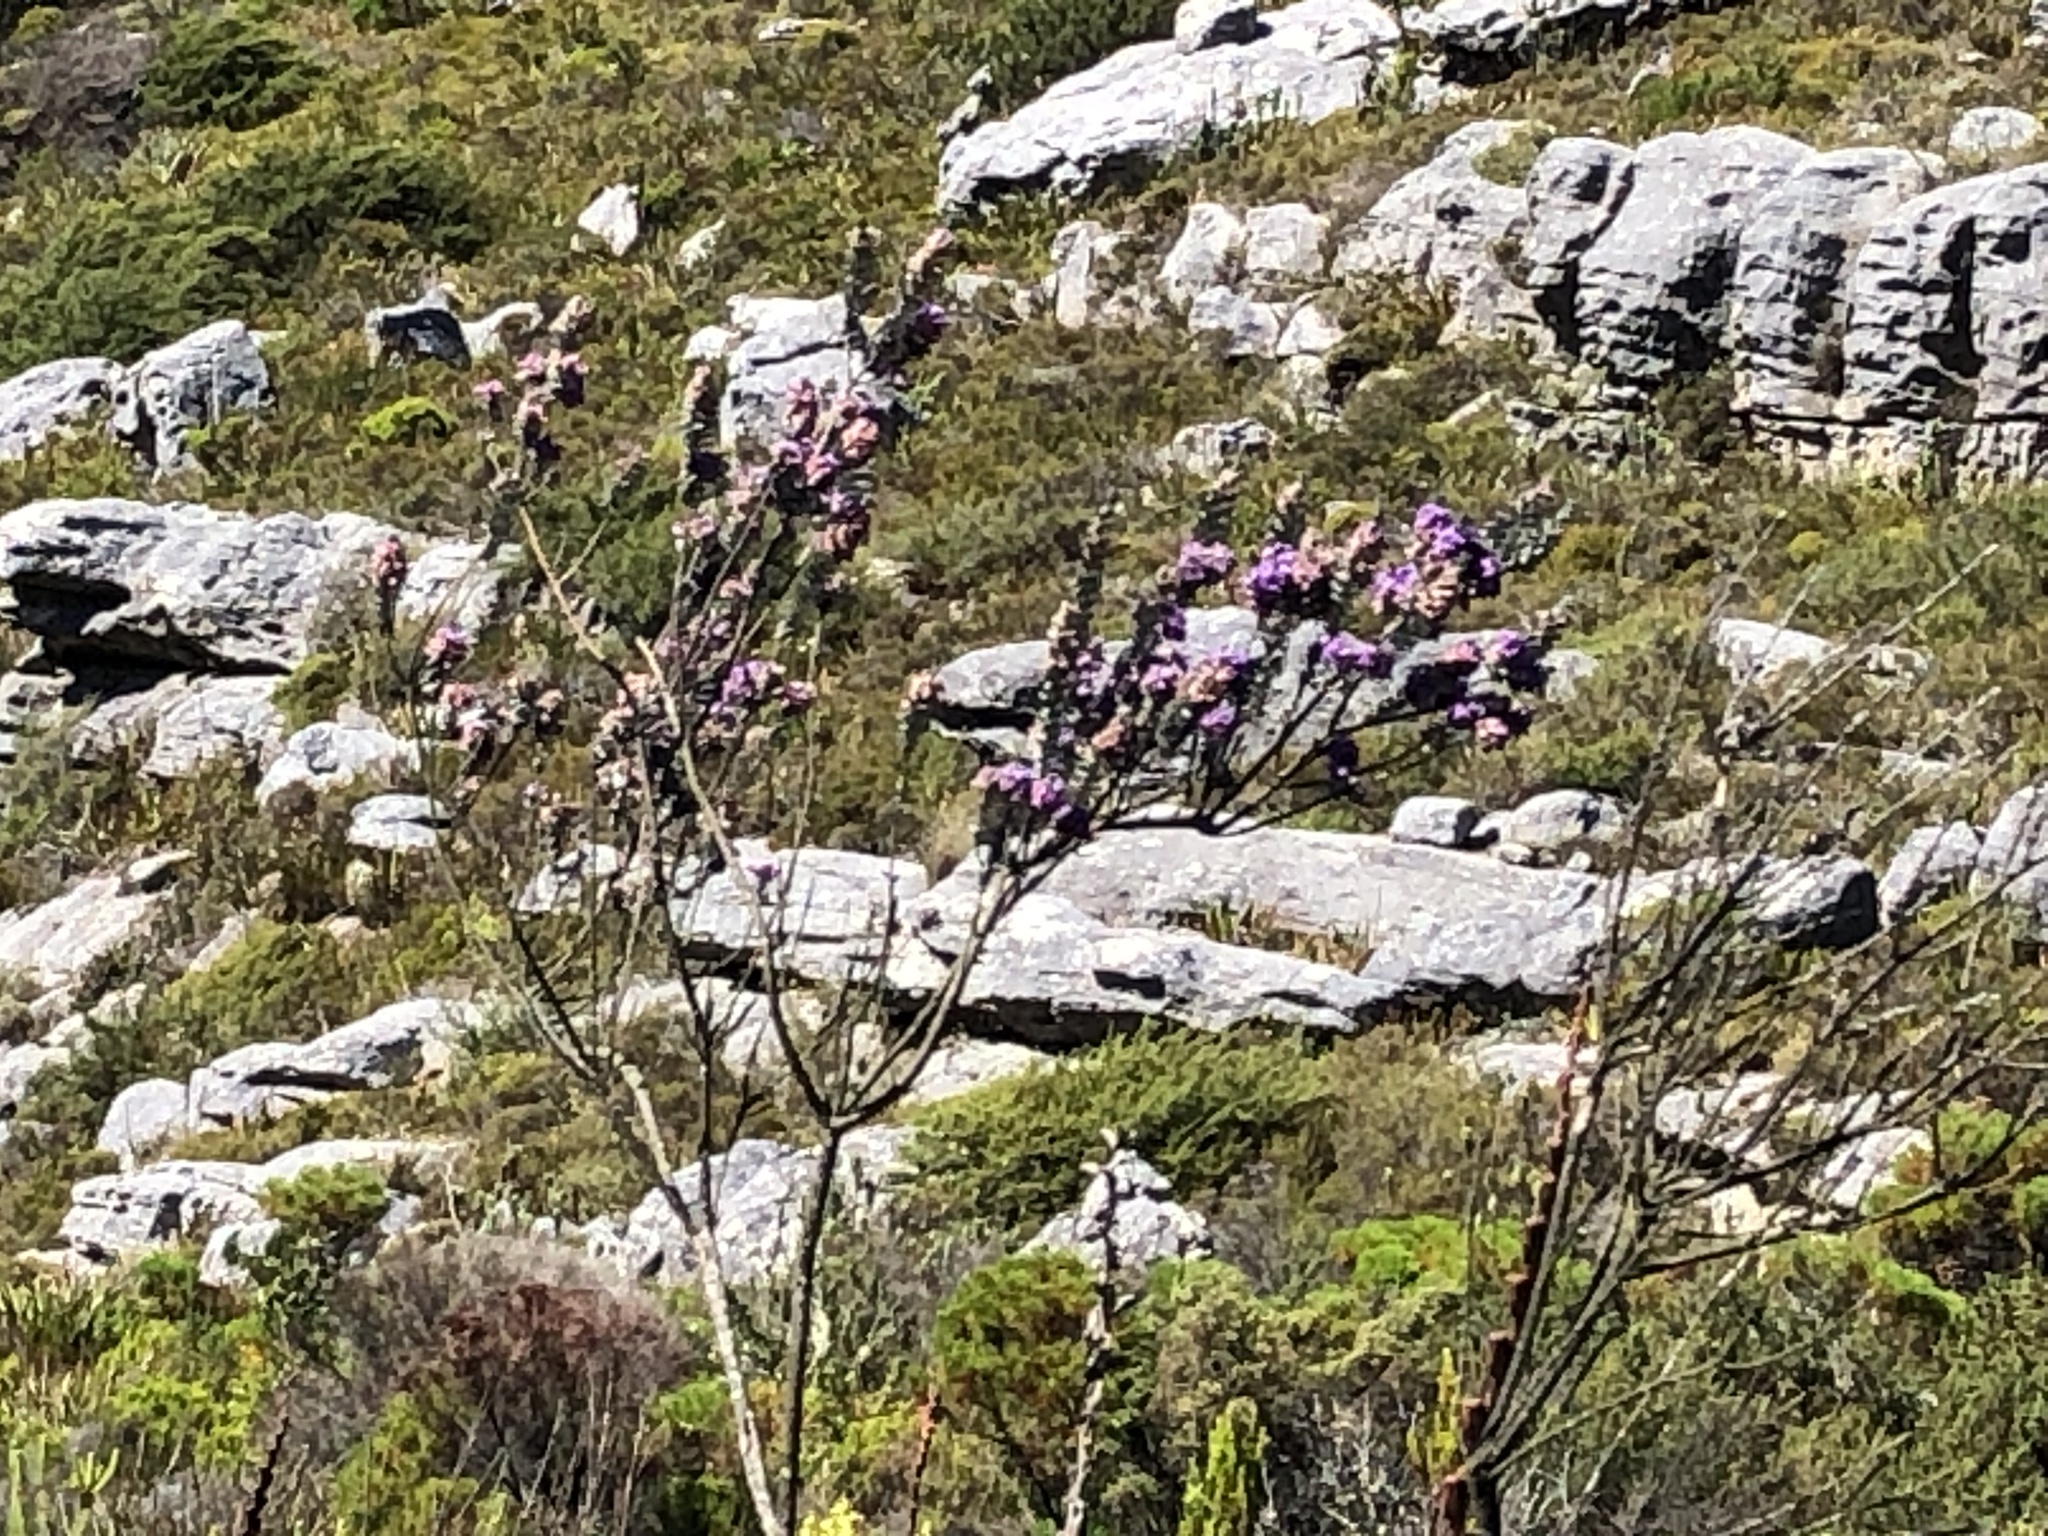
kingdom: Plantae
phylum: Tracheophyta
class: Magnoliopsida
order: Fabales
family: Fabaceae
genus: Amphithalea
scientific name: Amphithalea imbricata
